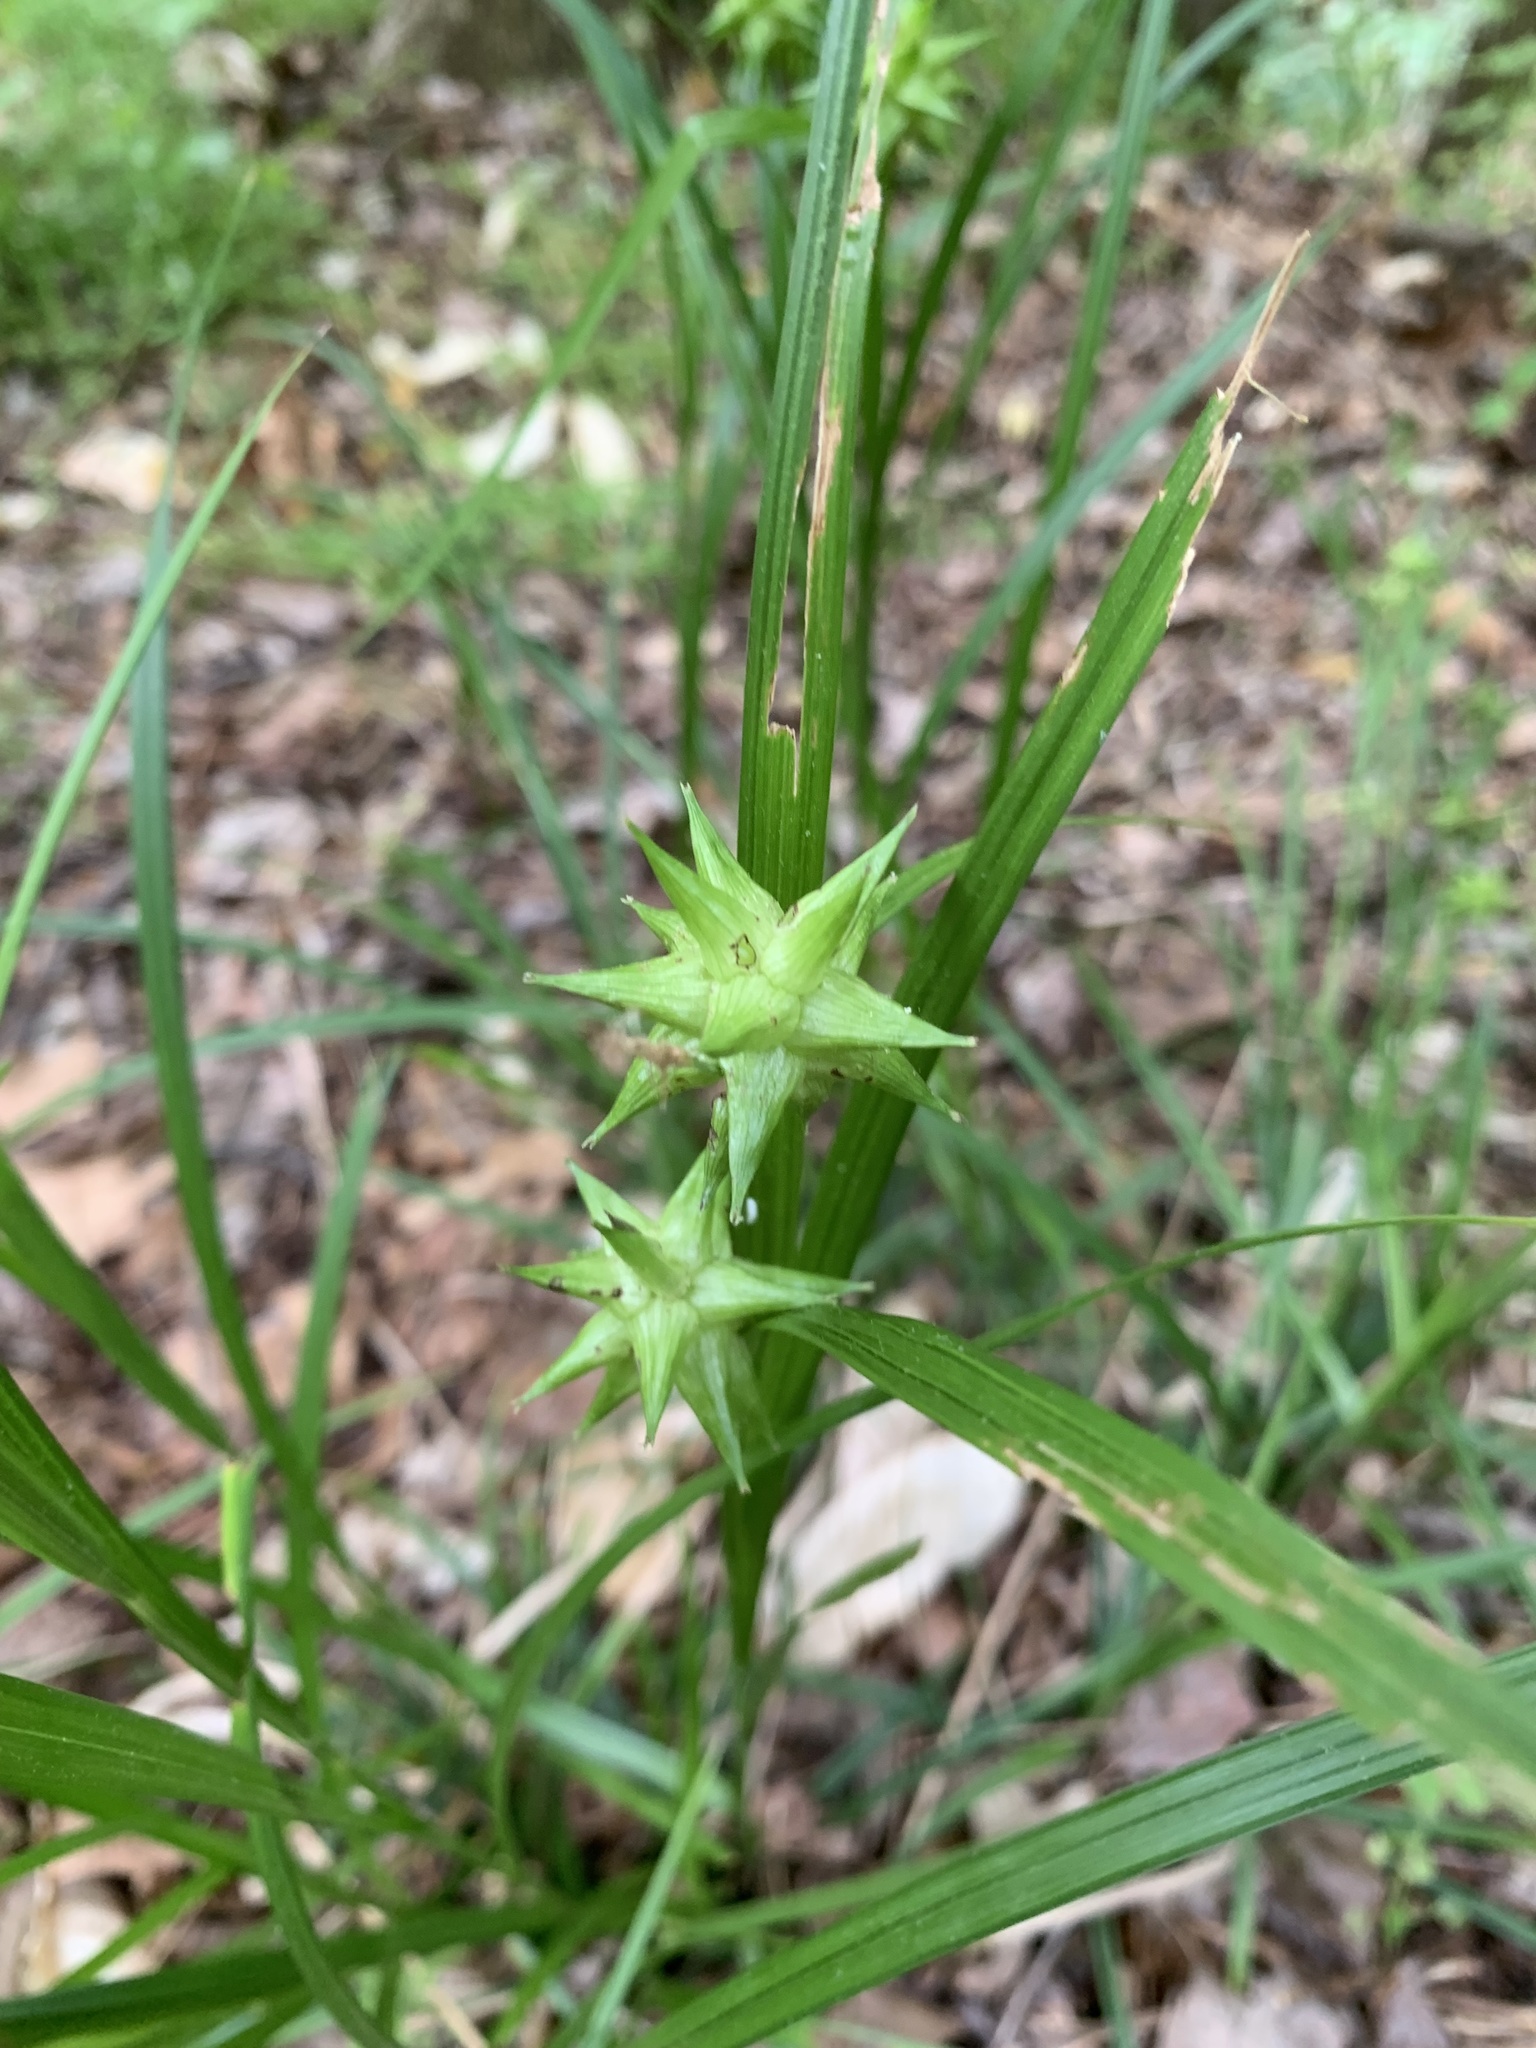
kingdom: Plantae
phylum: Tracheophyta
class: Liliopsida
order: Poales
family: Cyperaceae
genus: Carex
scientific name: Carex grayi
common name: Asa gray's sedge
